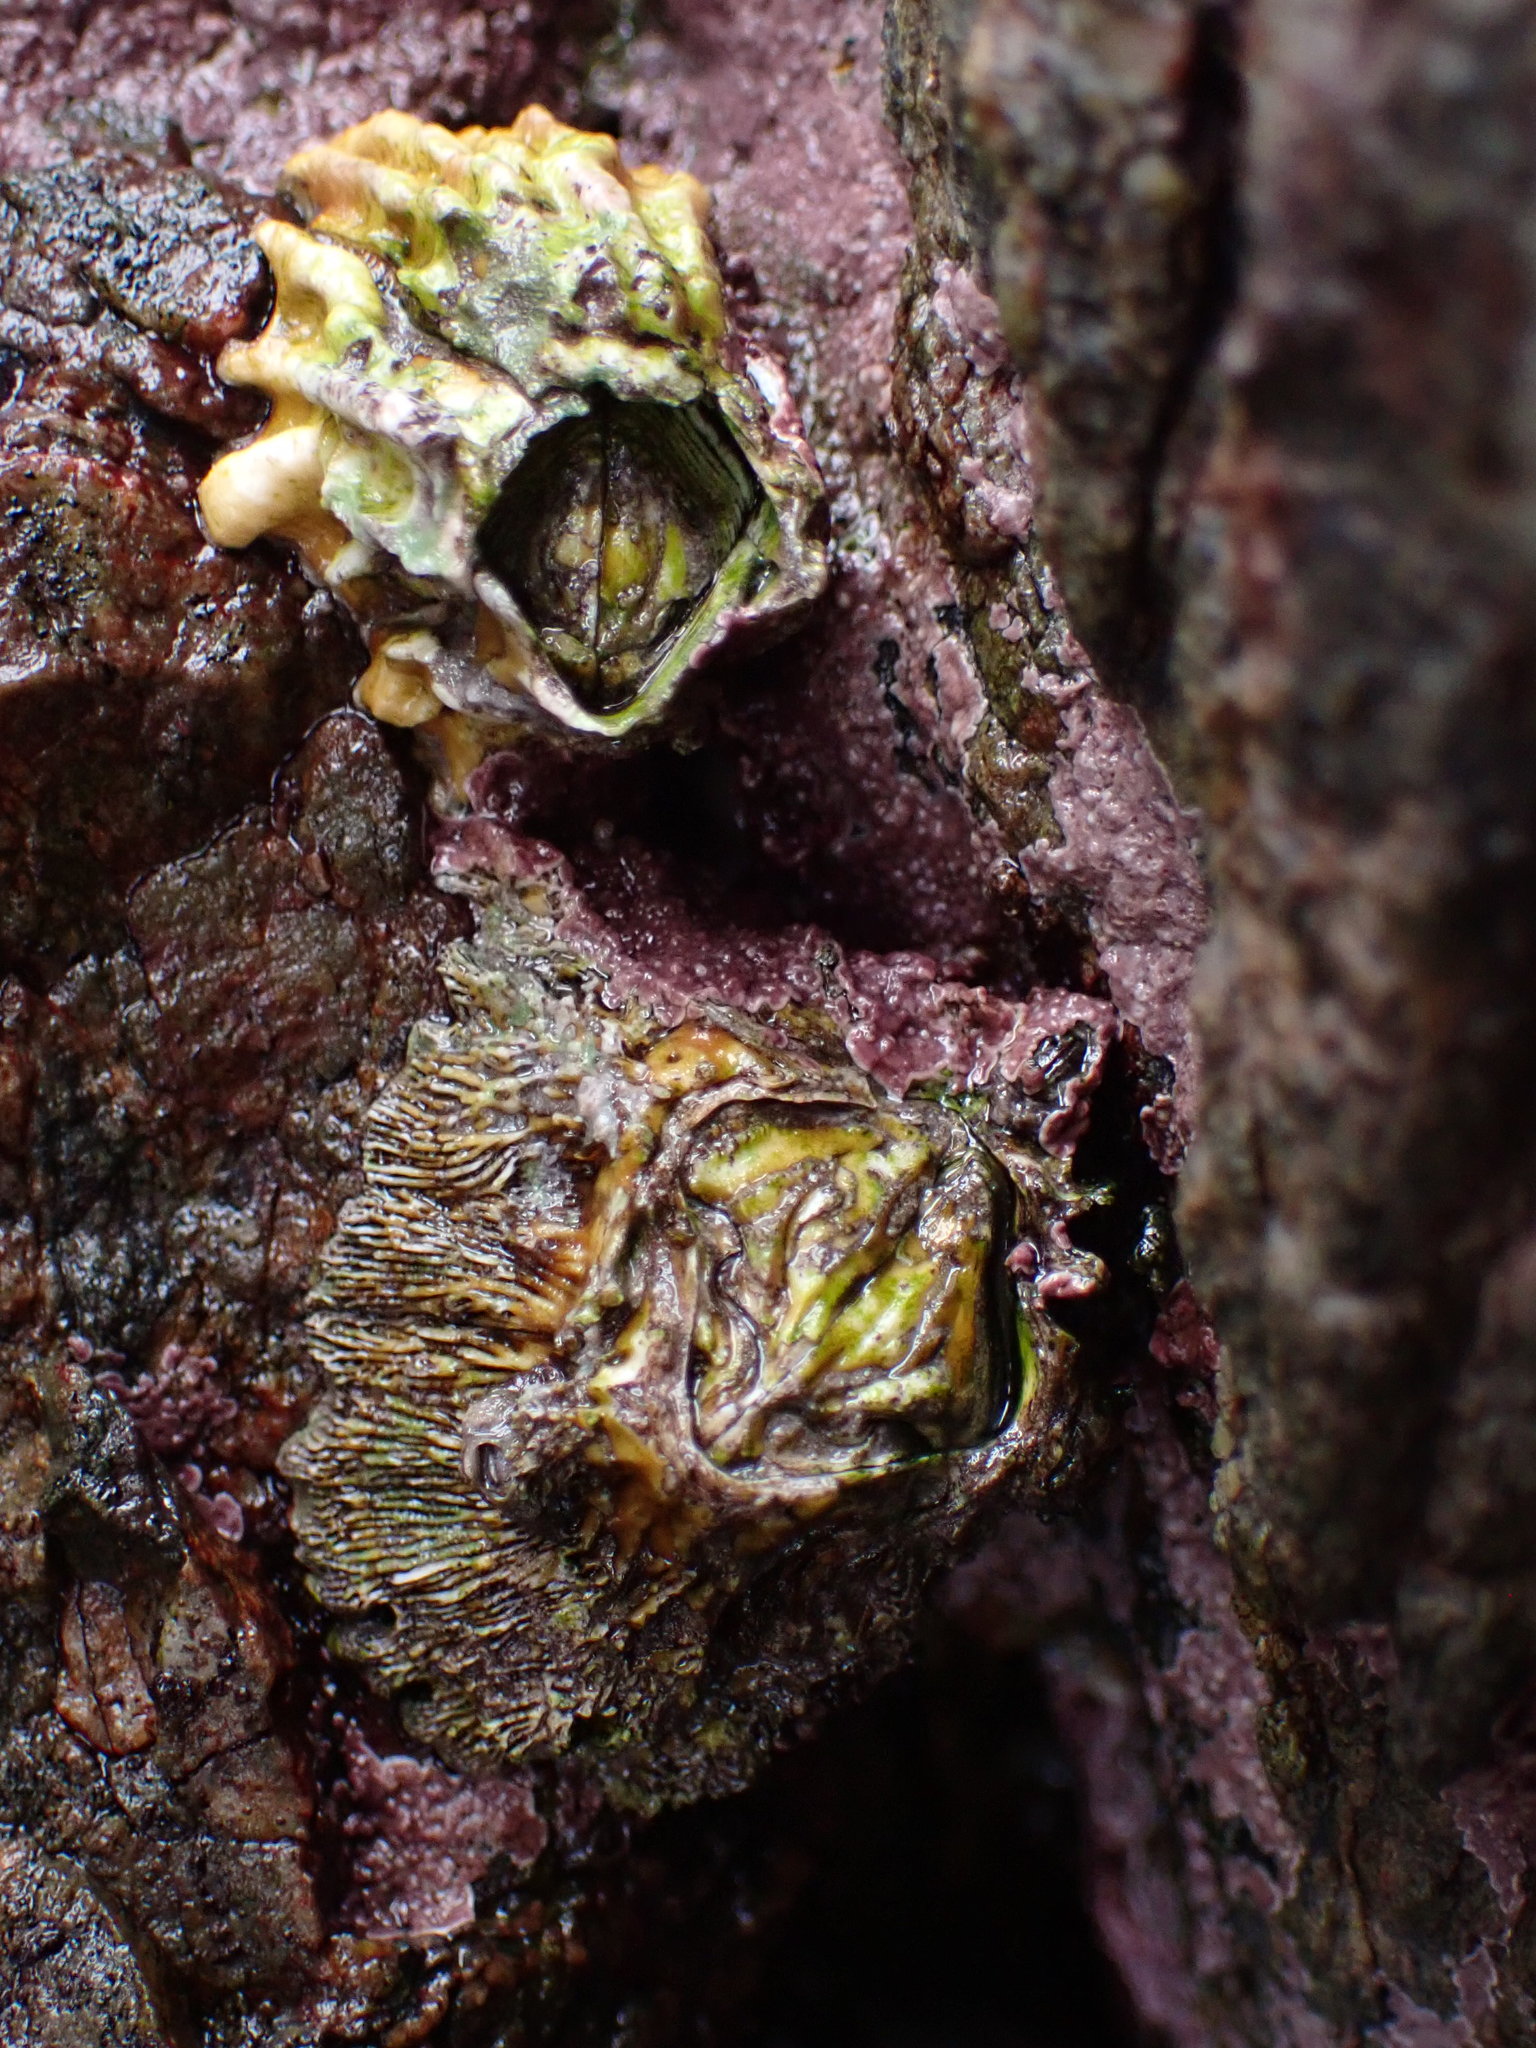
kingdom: Animalia
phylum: Arthropoda
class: Maxillopoda
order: Sessilia
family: Tetraclitidae
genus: Epopella
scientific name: Epopella plicata
